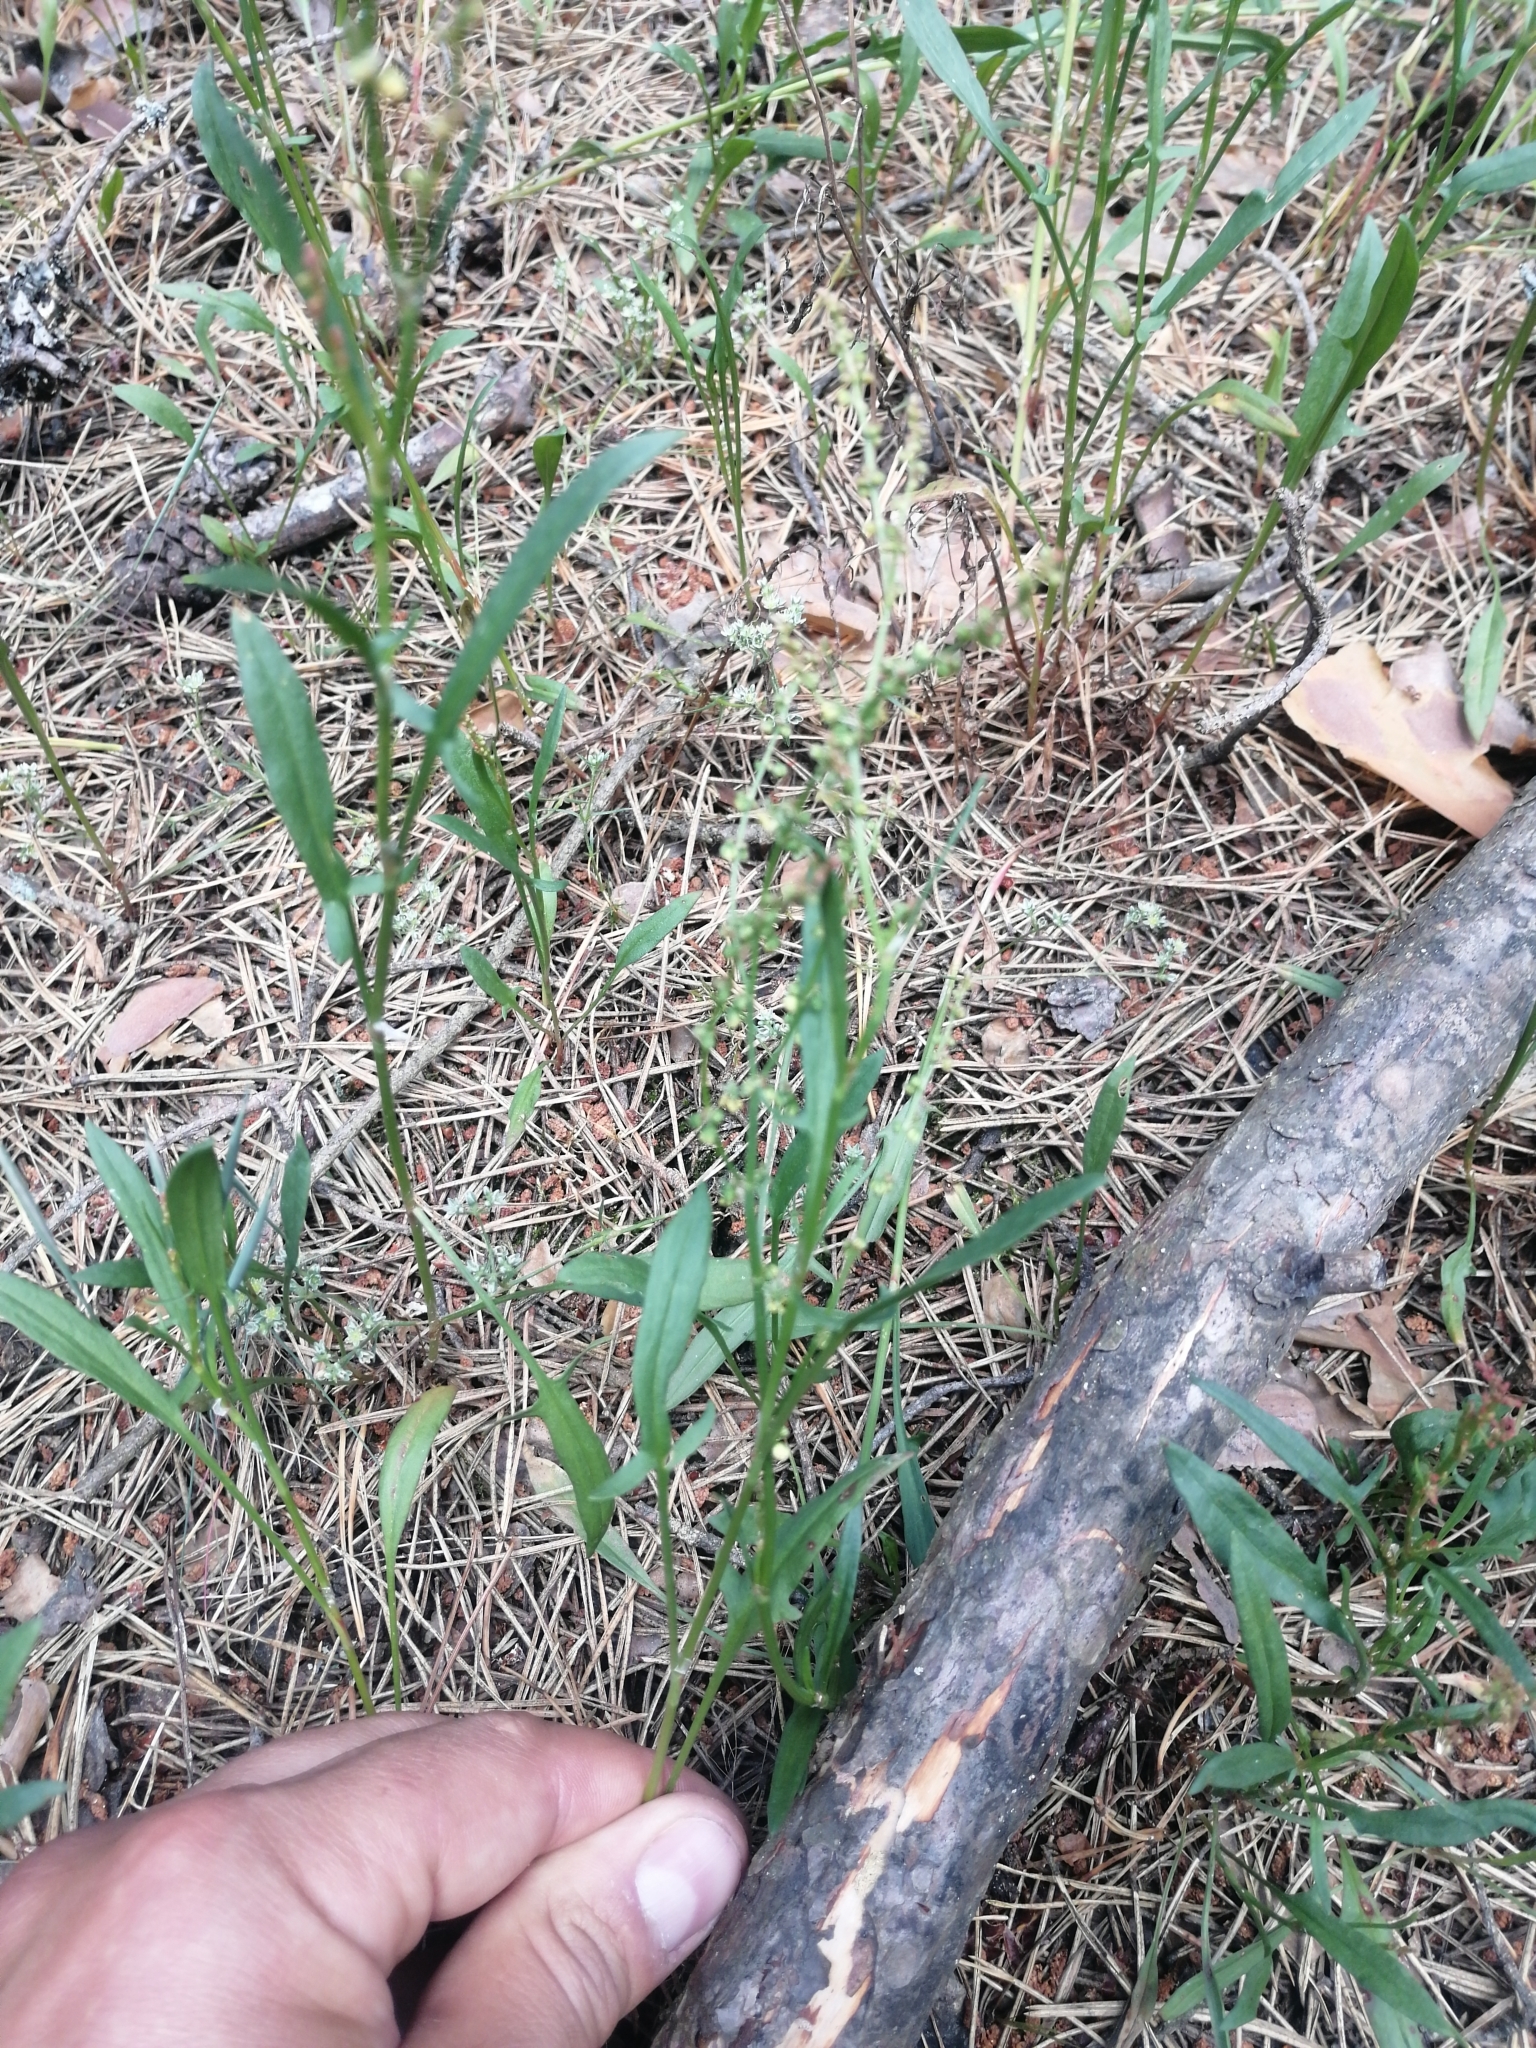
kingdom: Plantae
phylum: Tracheophyta
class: Magnoliopsida
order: Caryophyllales
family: Polygonaceae
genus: Rumex
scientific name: Rumex acetosella
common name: Common sheep sorrel
